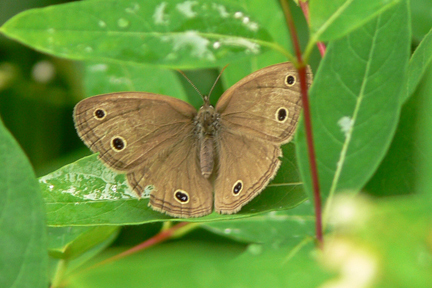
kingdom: Animalia
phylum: Arthropoda
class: Insecta
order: Lepidoptera
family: Nymphalidae
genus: Euptychia
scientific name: Euptychia cymela
